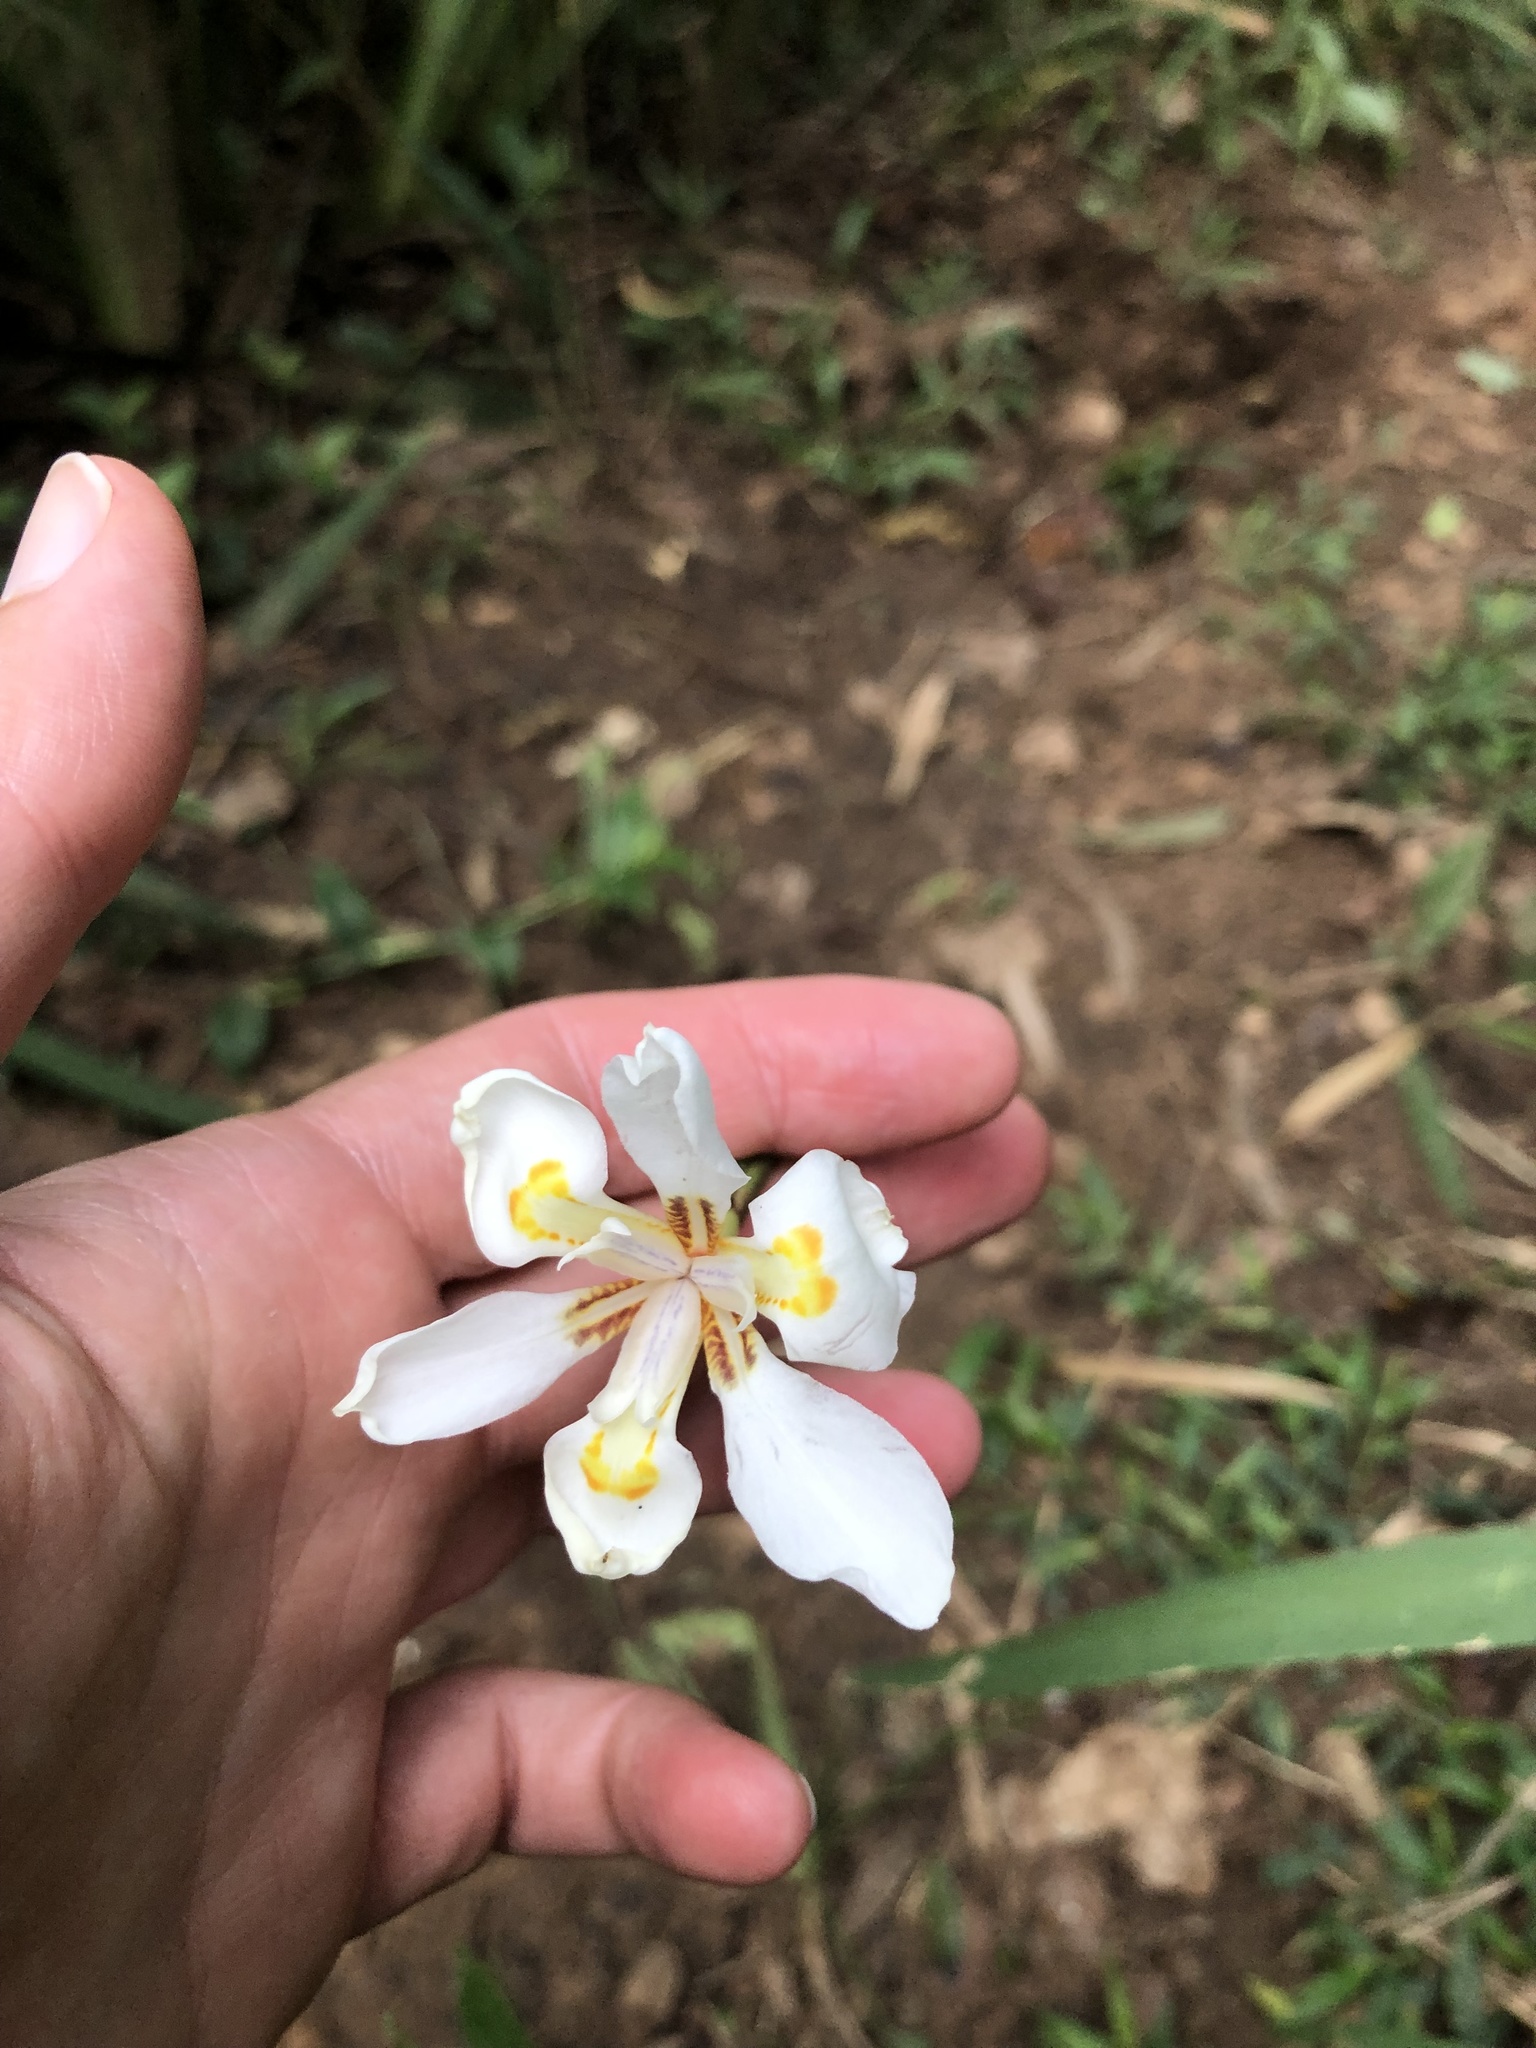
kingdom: Plantae
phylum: Tracheophyta
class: Liliopsida
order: Asparagales
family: Iridaceae
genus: Dietes
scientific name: Dietes iridioides
